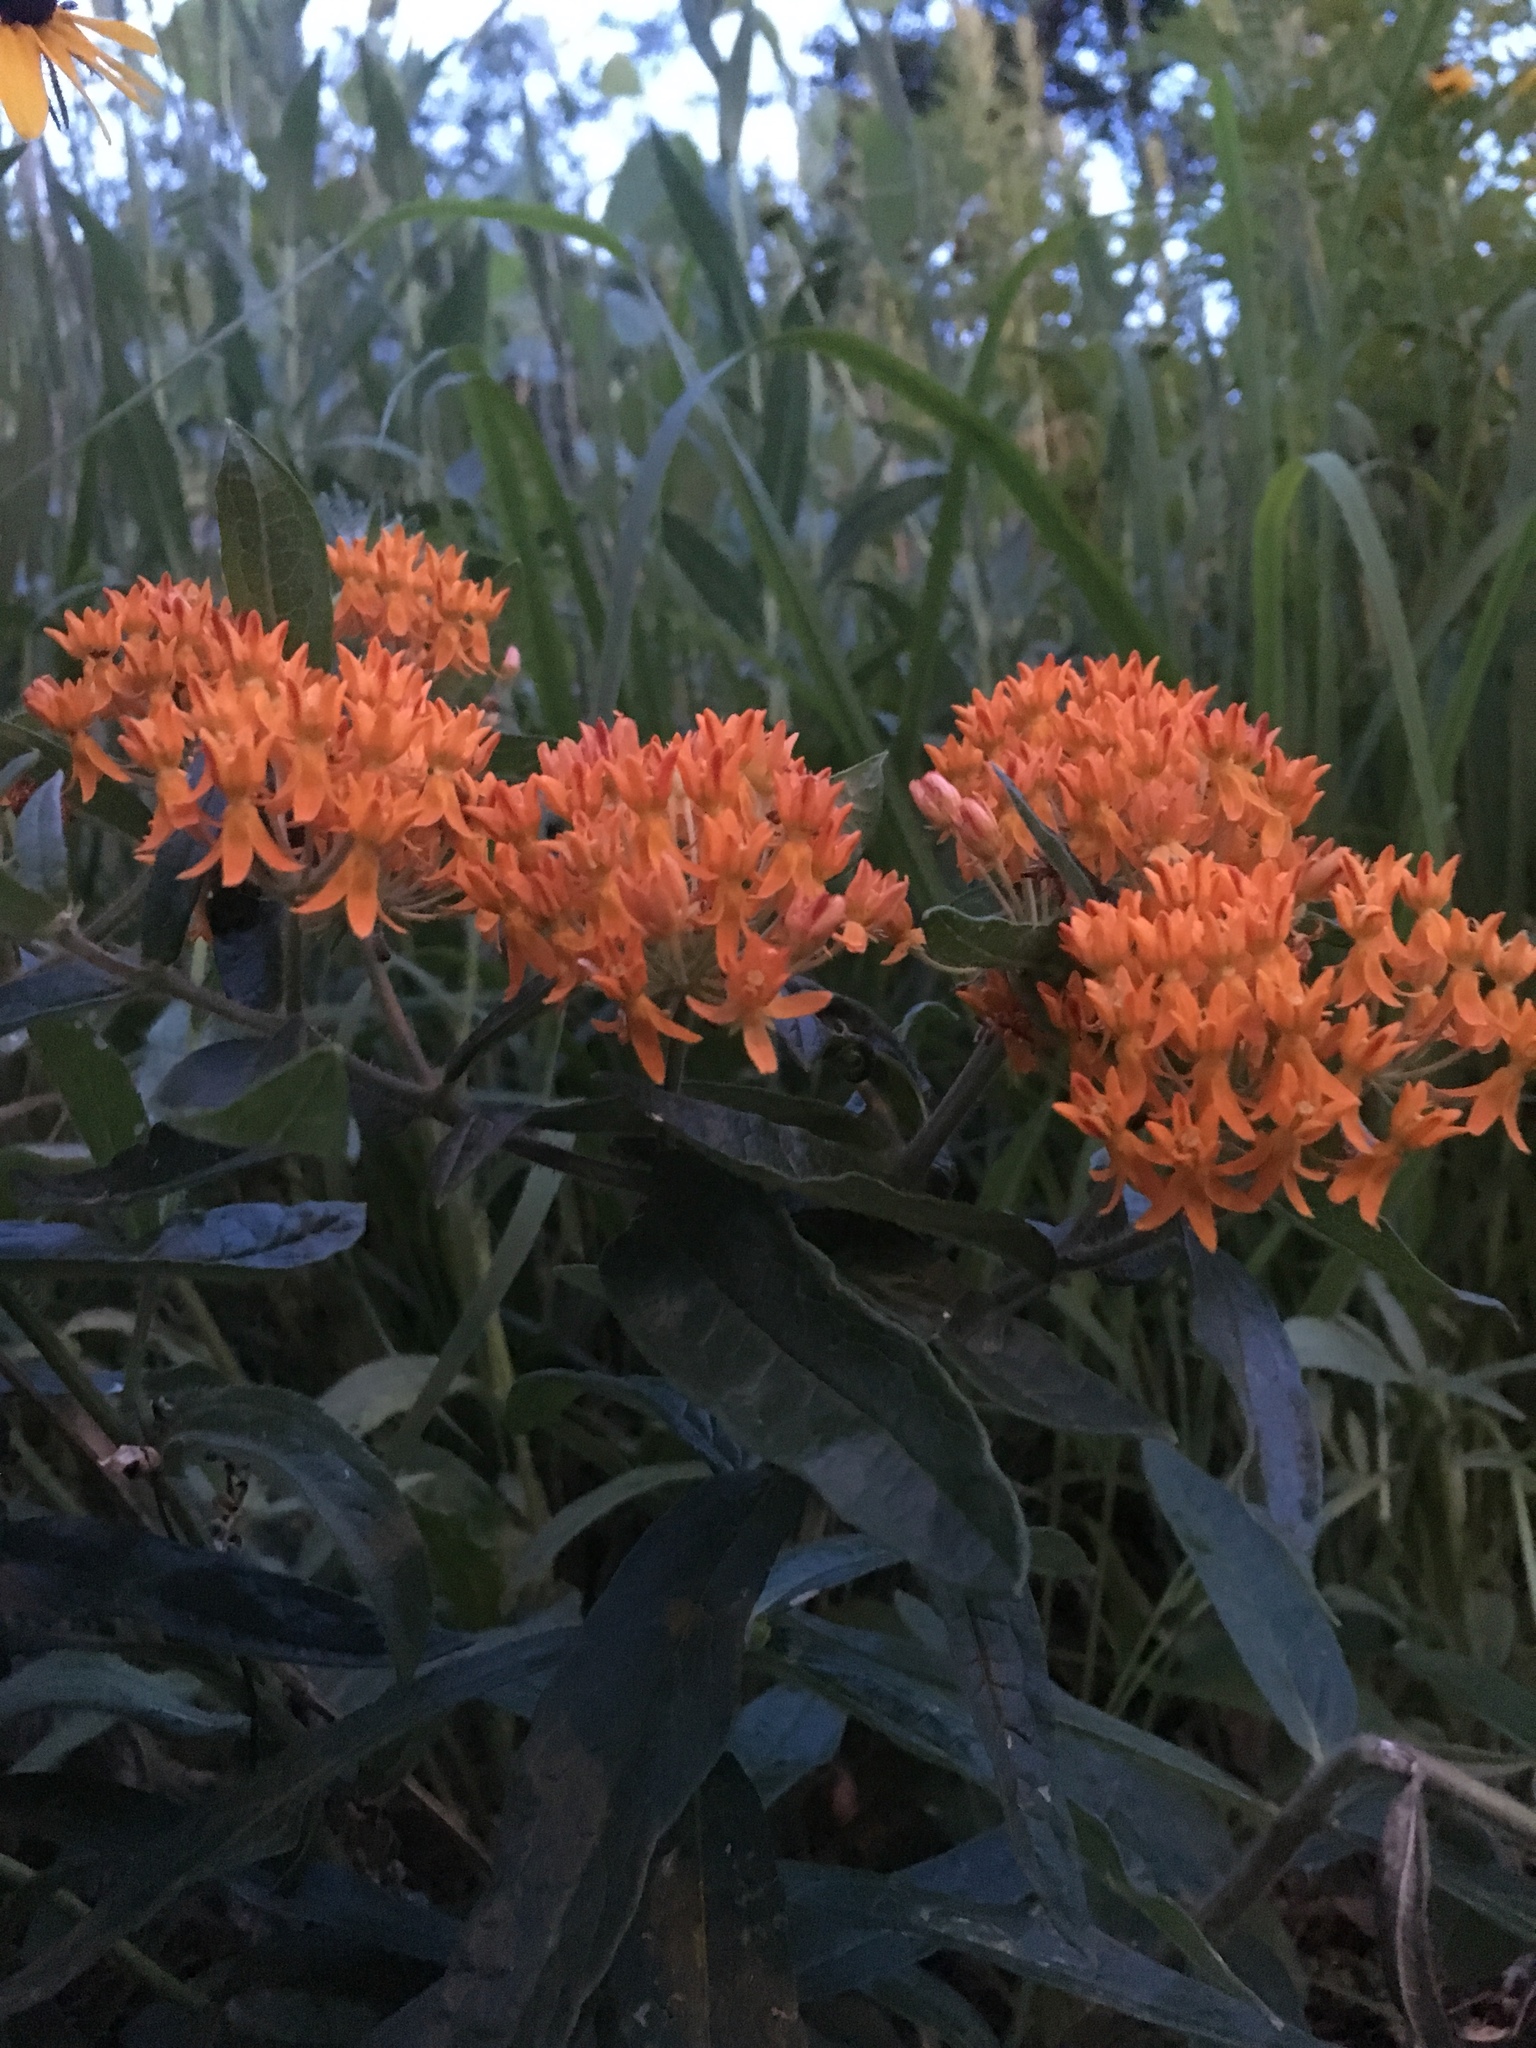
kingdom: Plantae
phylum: Tracheophyta
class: Magnoliopsida
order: Gentianales
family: Apocynaceae
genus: Asclepias
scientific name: Asclepias tuberosa
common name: Butterfly milkweed
